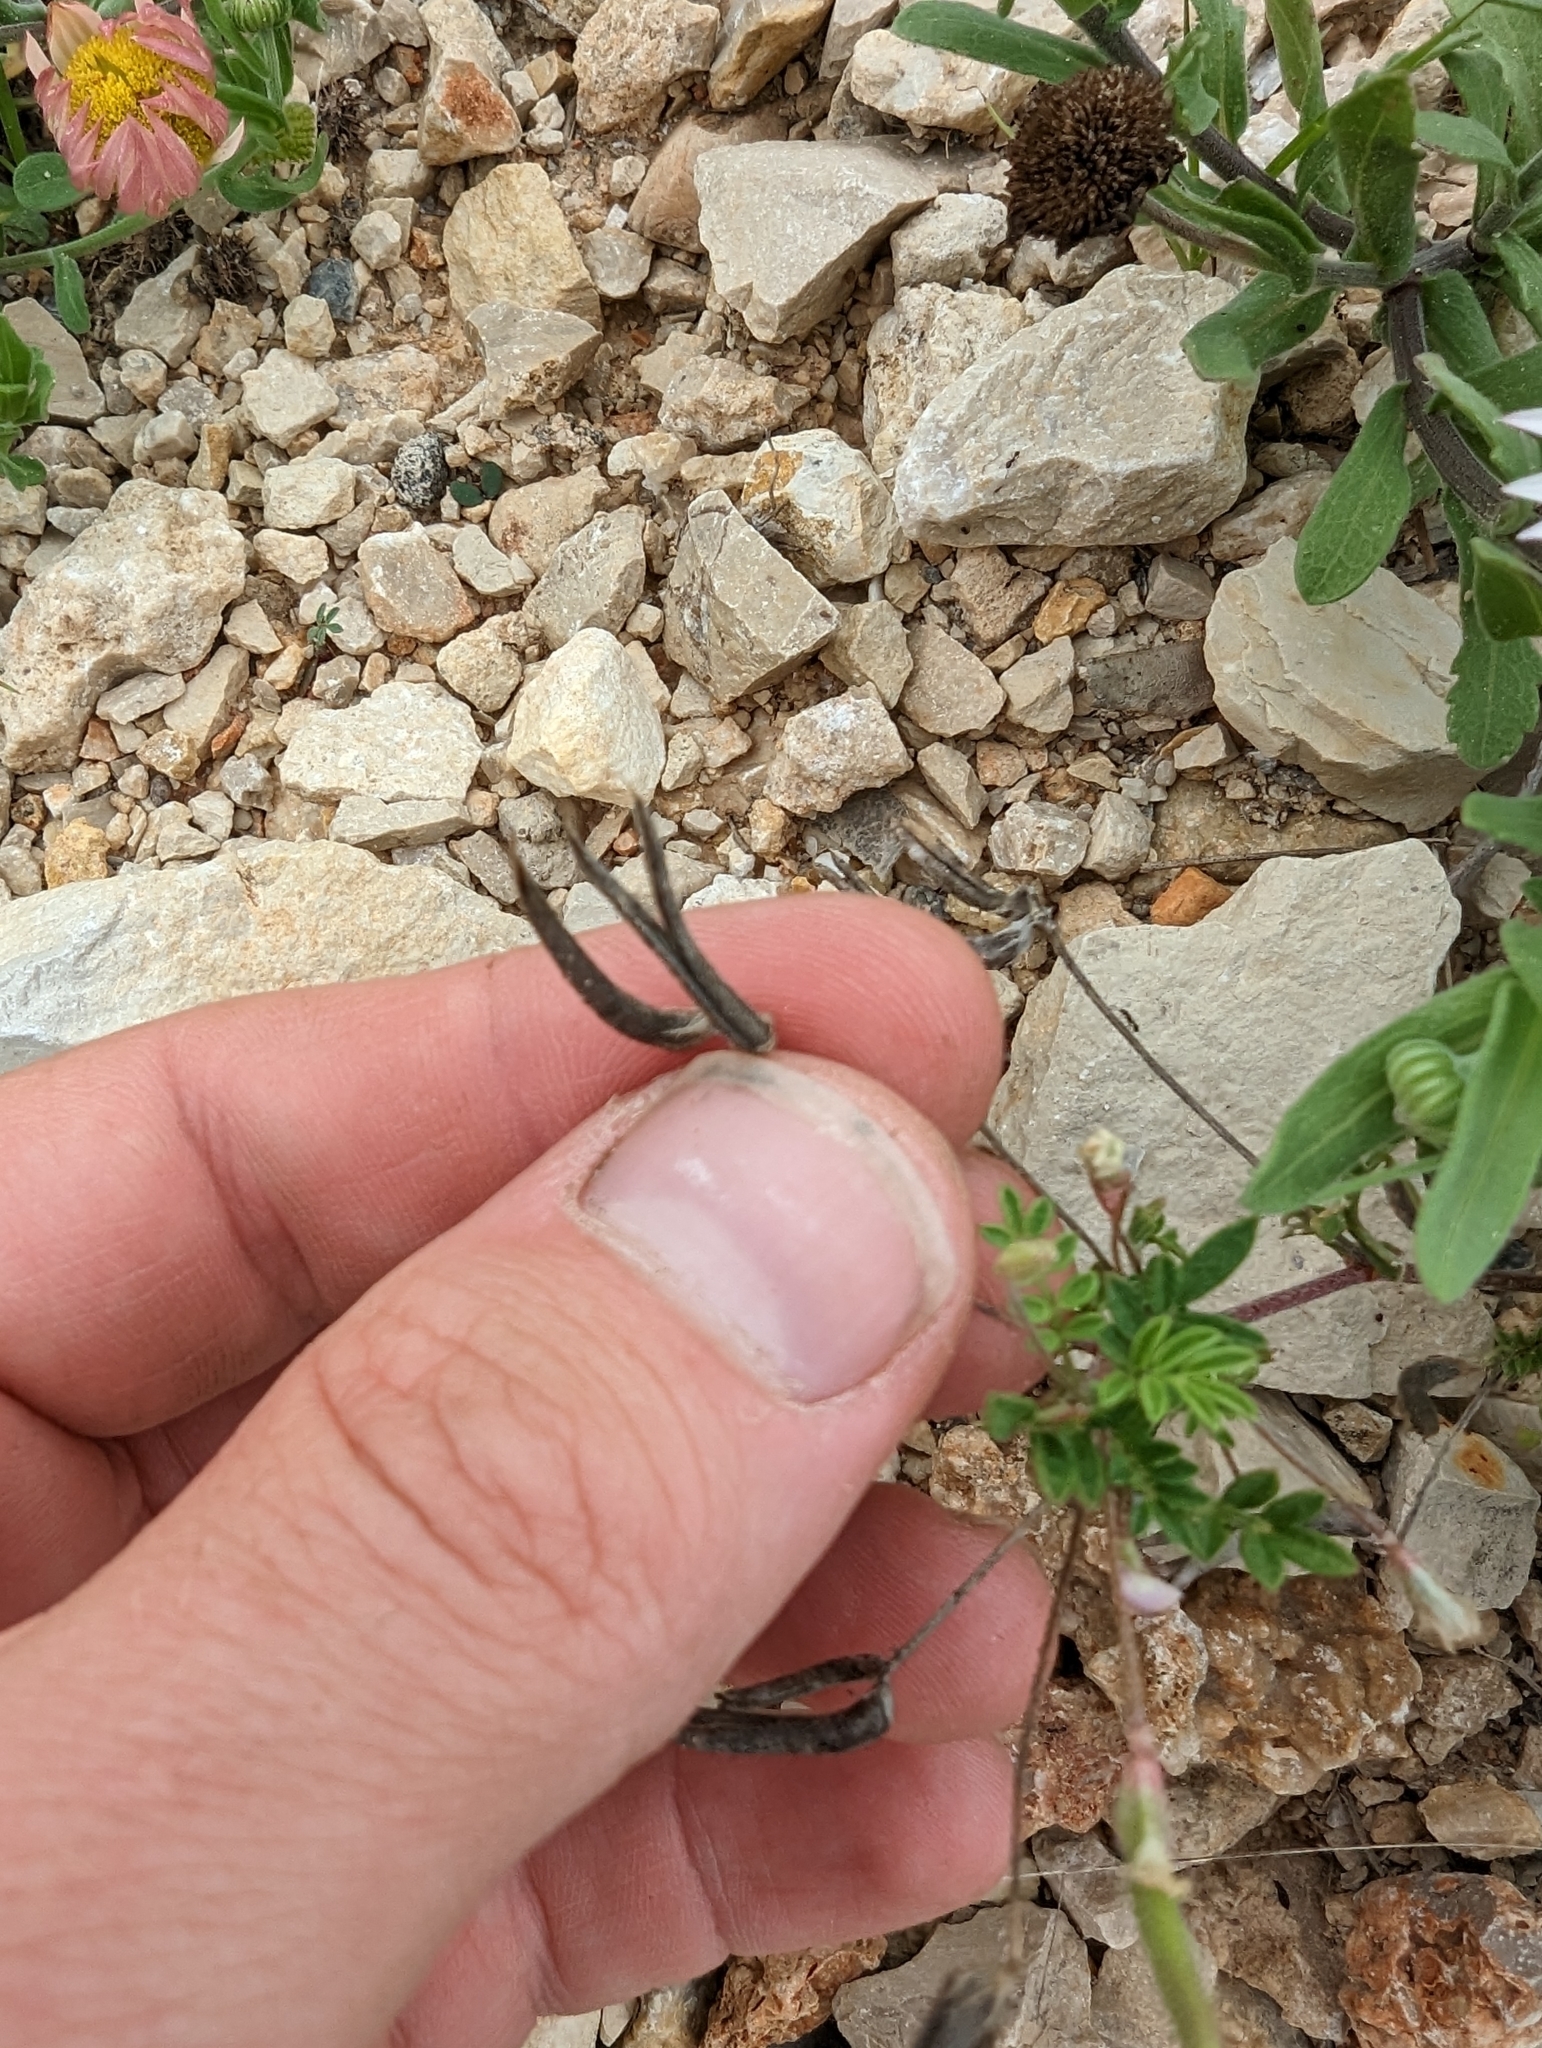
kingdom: Plantae
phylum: Tracheophyta
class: Magnoliopsida
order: Fabales
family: Fabaceae
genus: Astragalus
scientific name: Astragalus nuttallianus
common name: Smallflowered milkvetch
